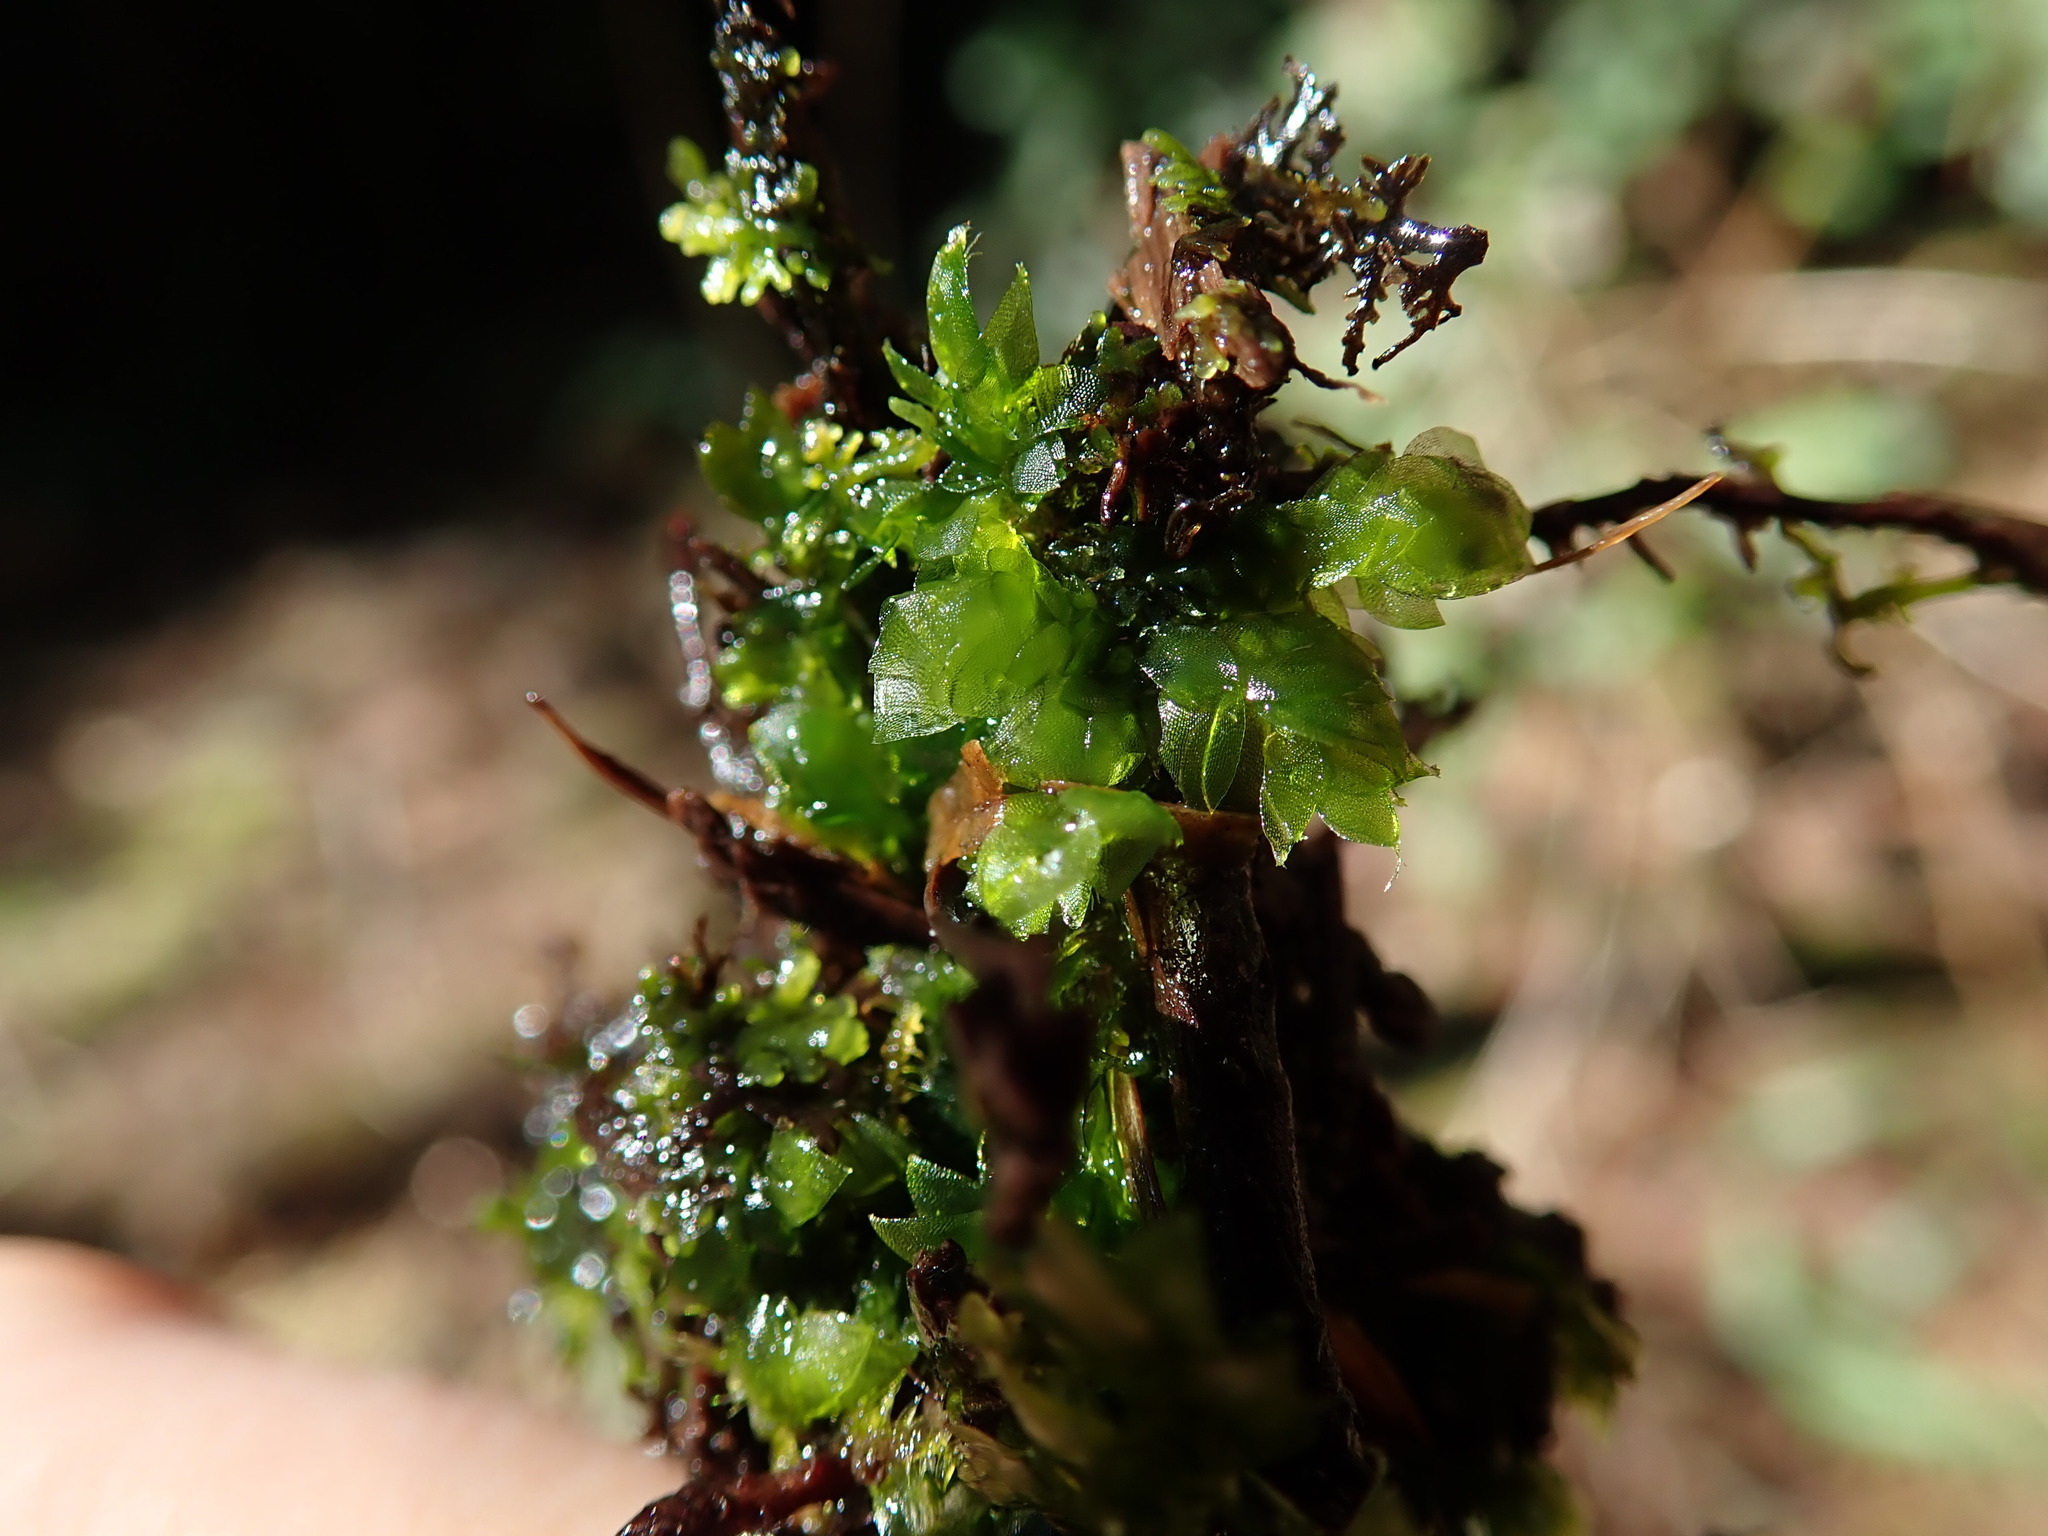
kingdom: Plantae
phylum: Bryophyta
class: Bryopsida
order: Hookeriales
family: Hookeriaceae
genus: Hookeria
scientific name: Hookeria acutifolia
